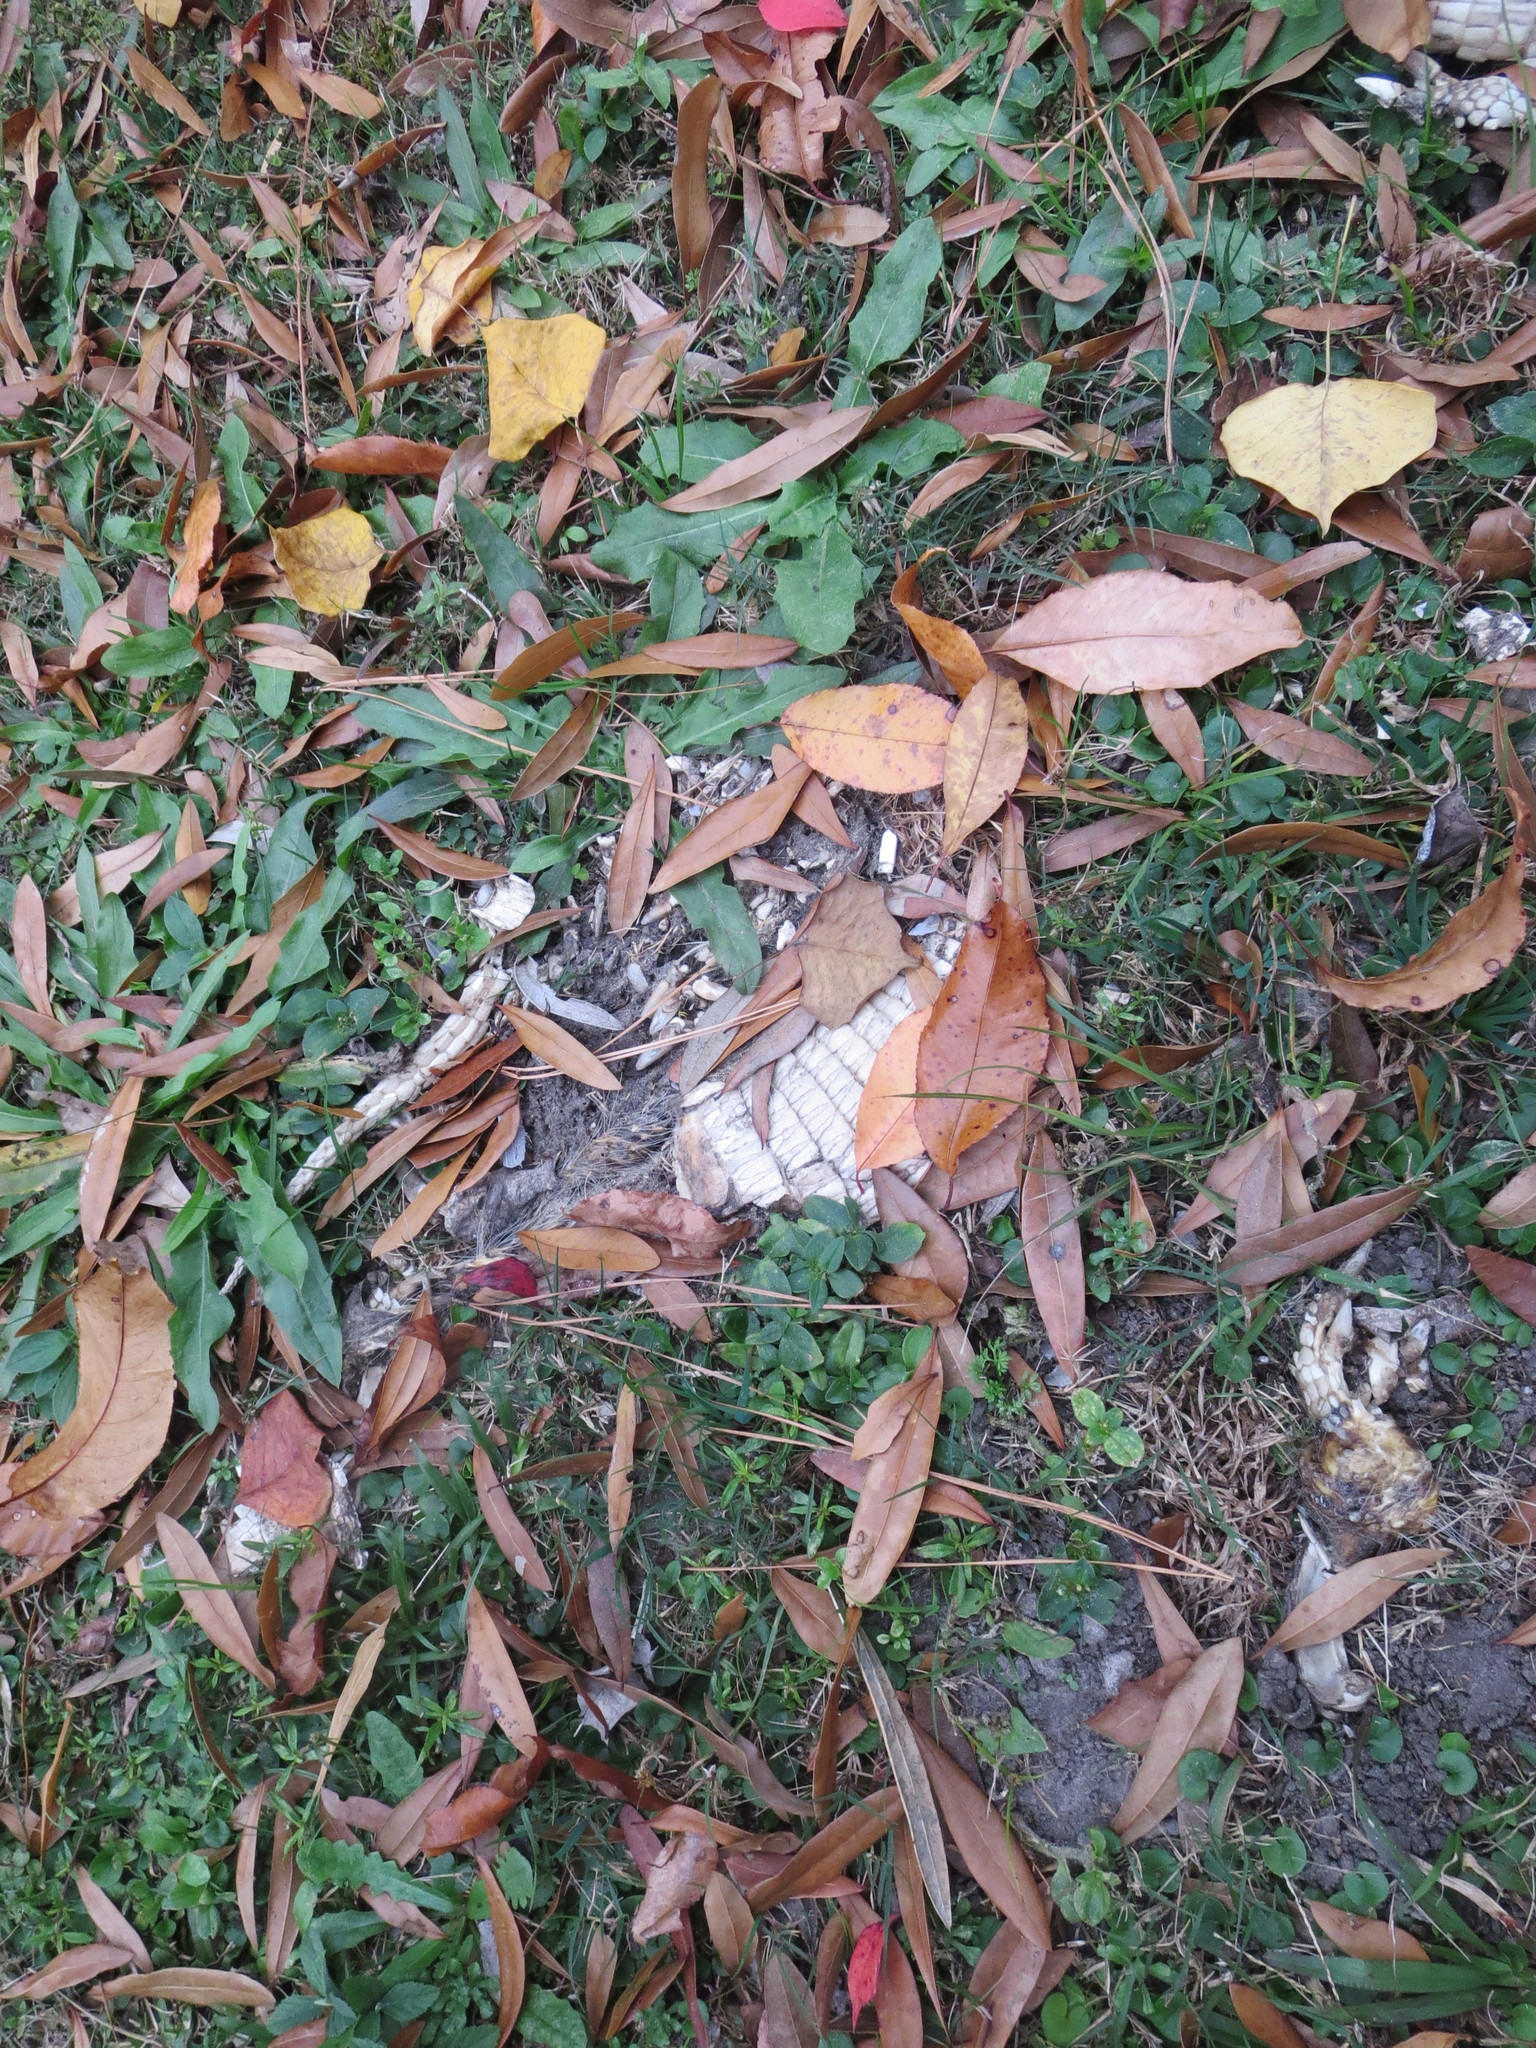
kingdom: Animalia
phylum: Chordata
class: Mammalia
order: Cingulata
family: Dasypodidae
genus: Dasypus
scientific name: Dasypus novemcinctus
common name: Nine-banded armadillo
